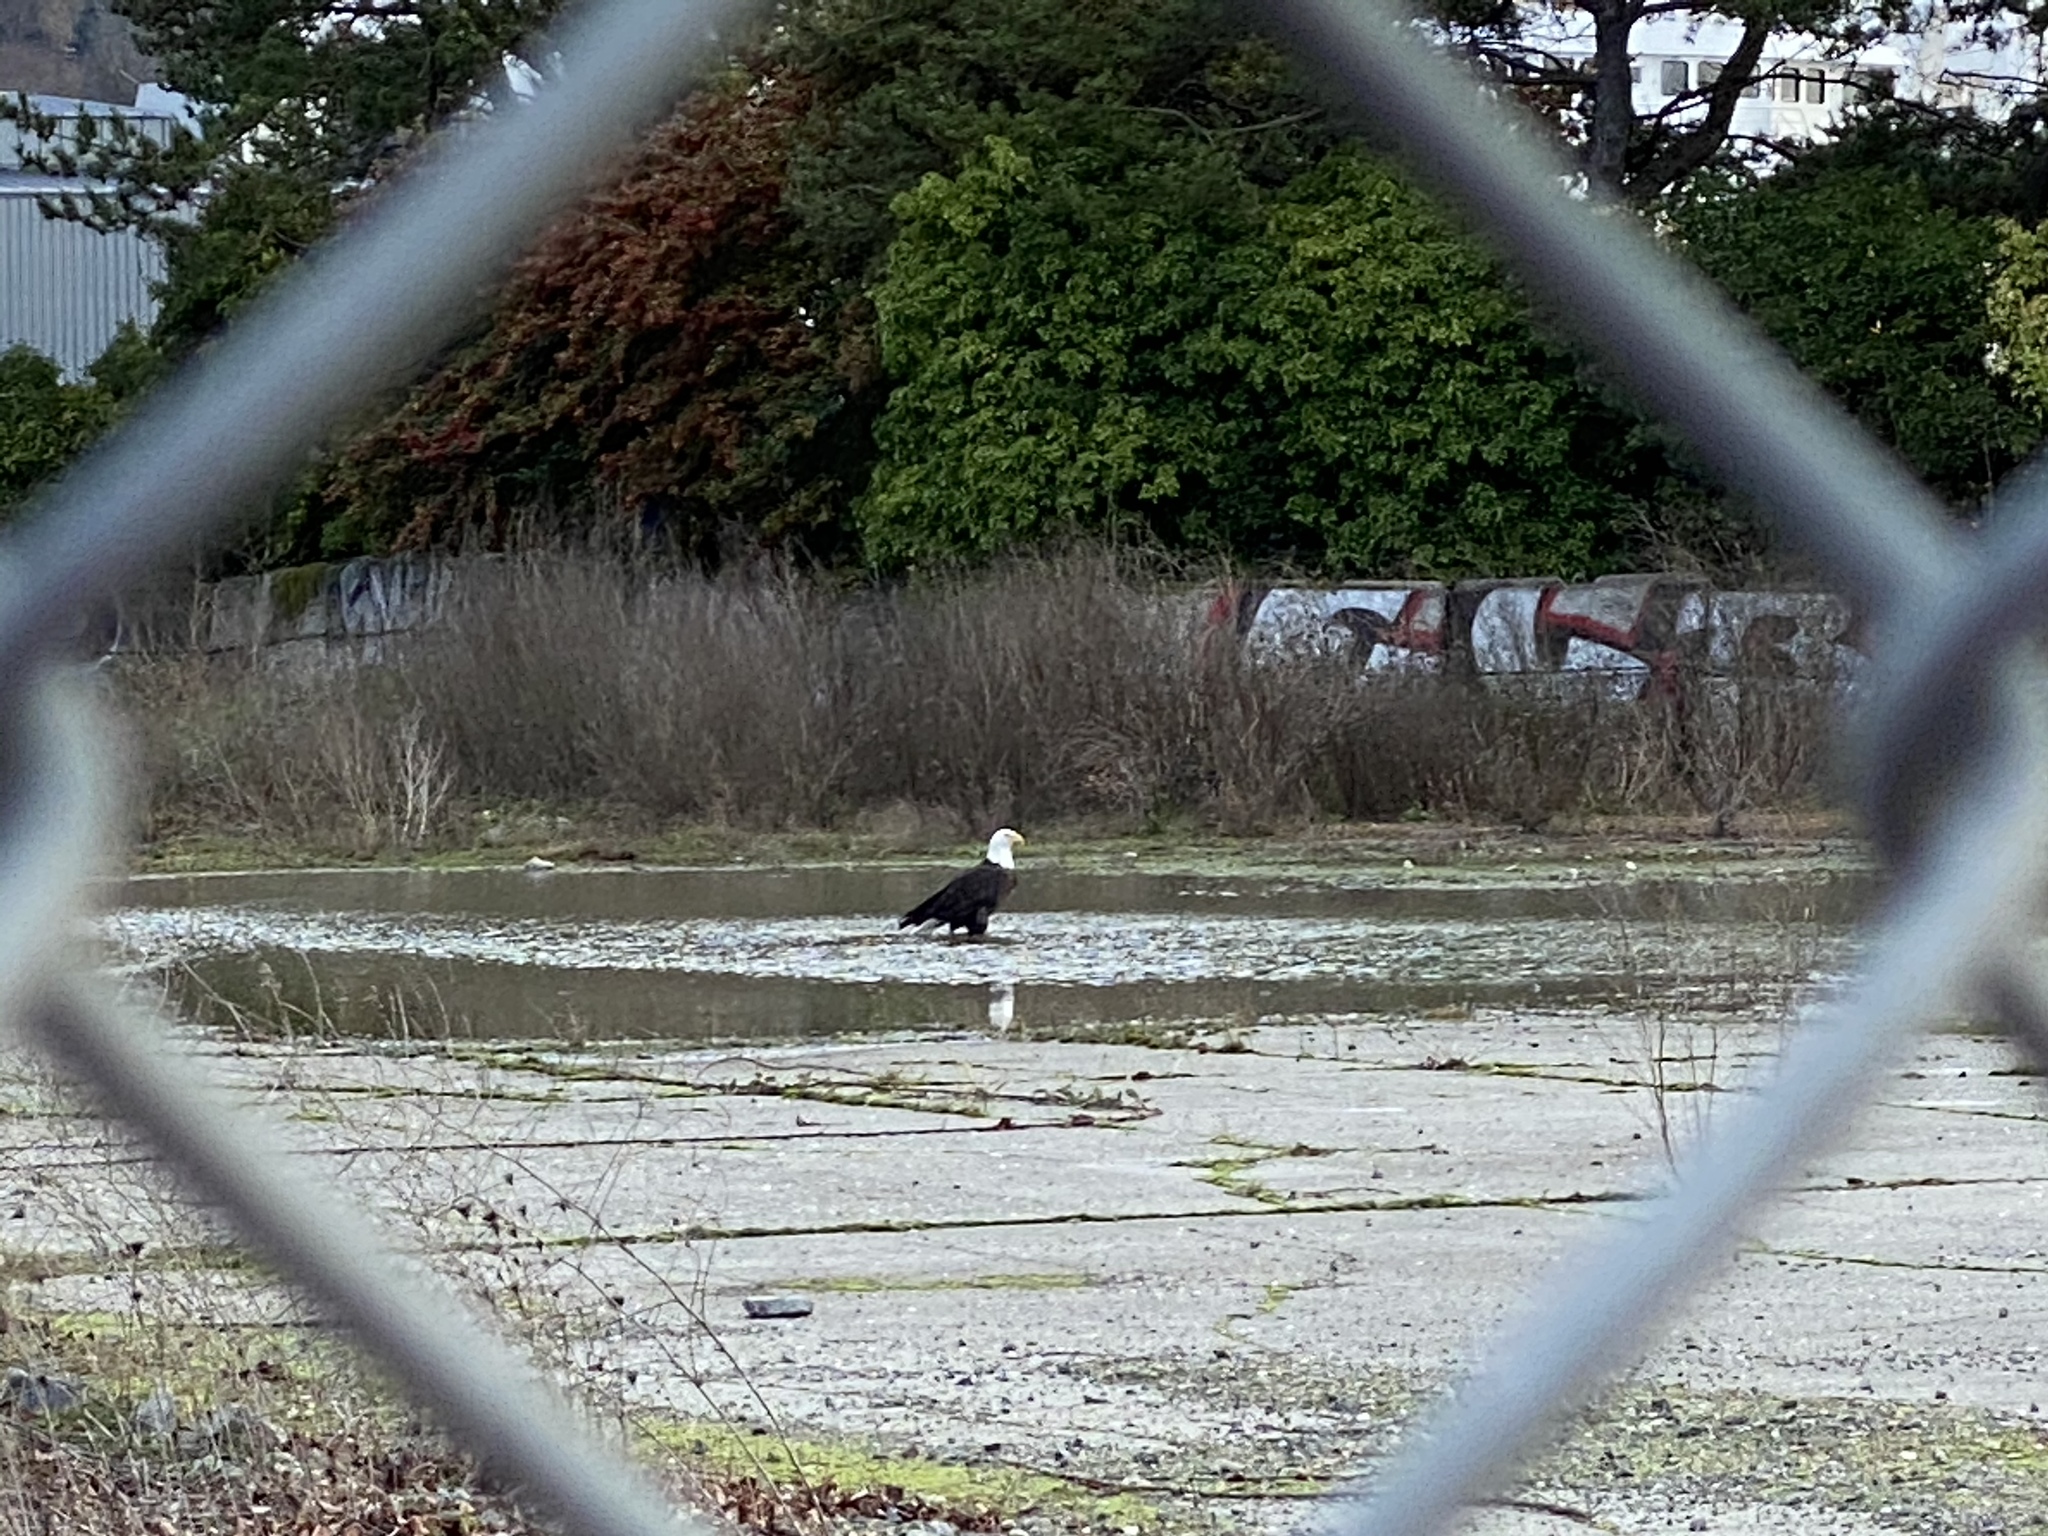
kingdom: Animalia
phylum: Chordata
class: Aves
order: Accipitriformes
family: Accipitridae
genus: Haliaeetus
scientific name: Haliaeetus leucocephalus
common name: Bald eagle
